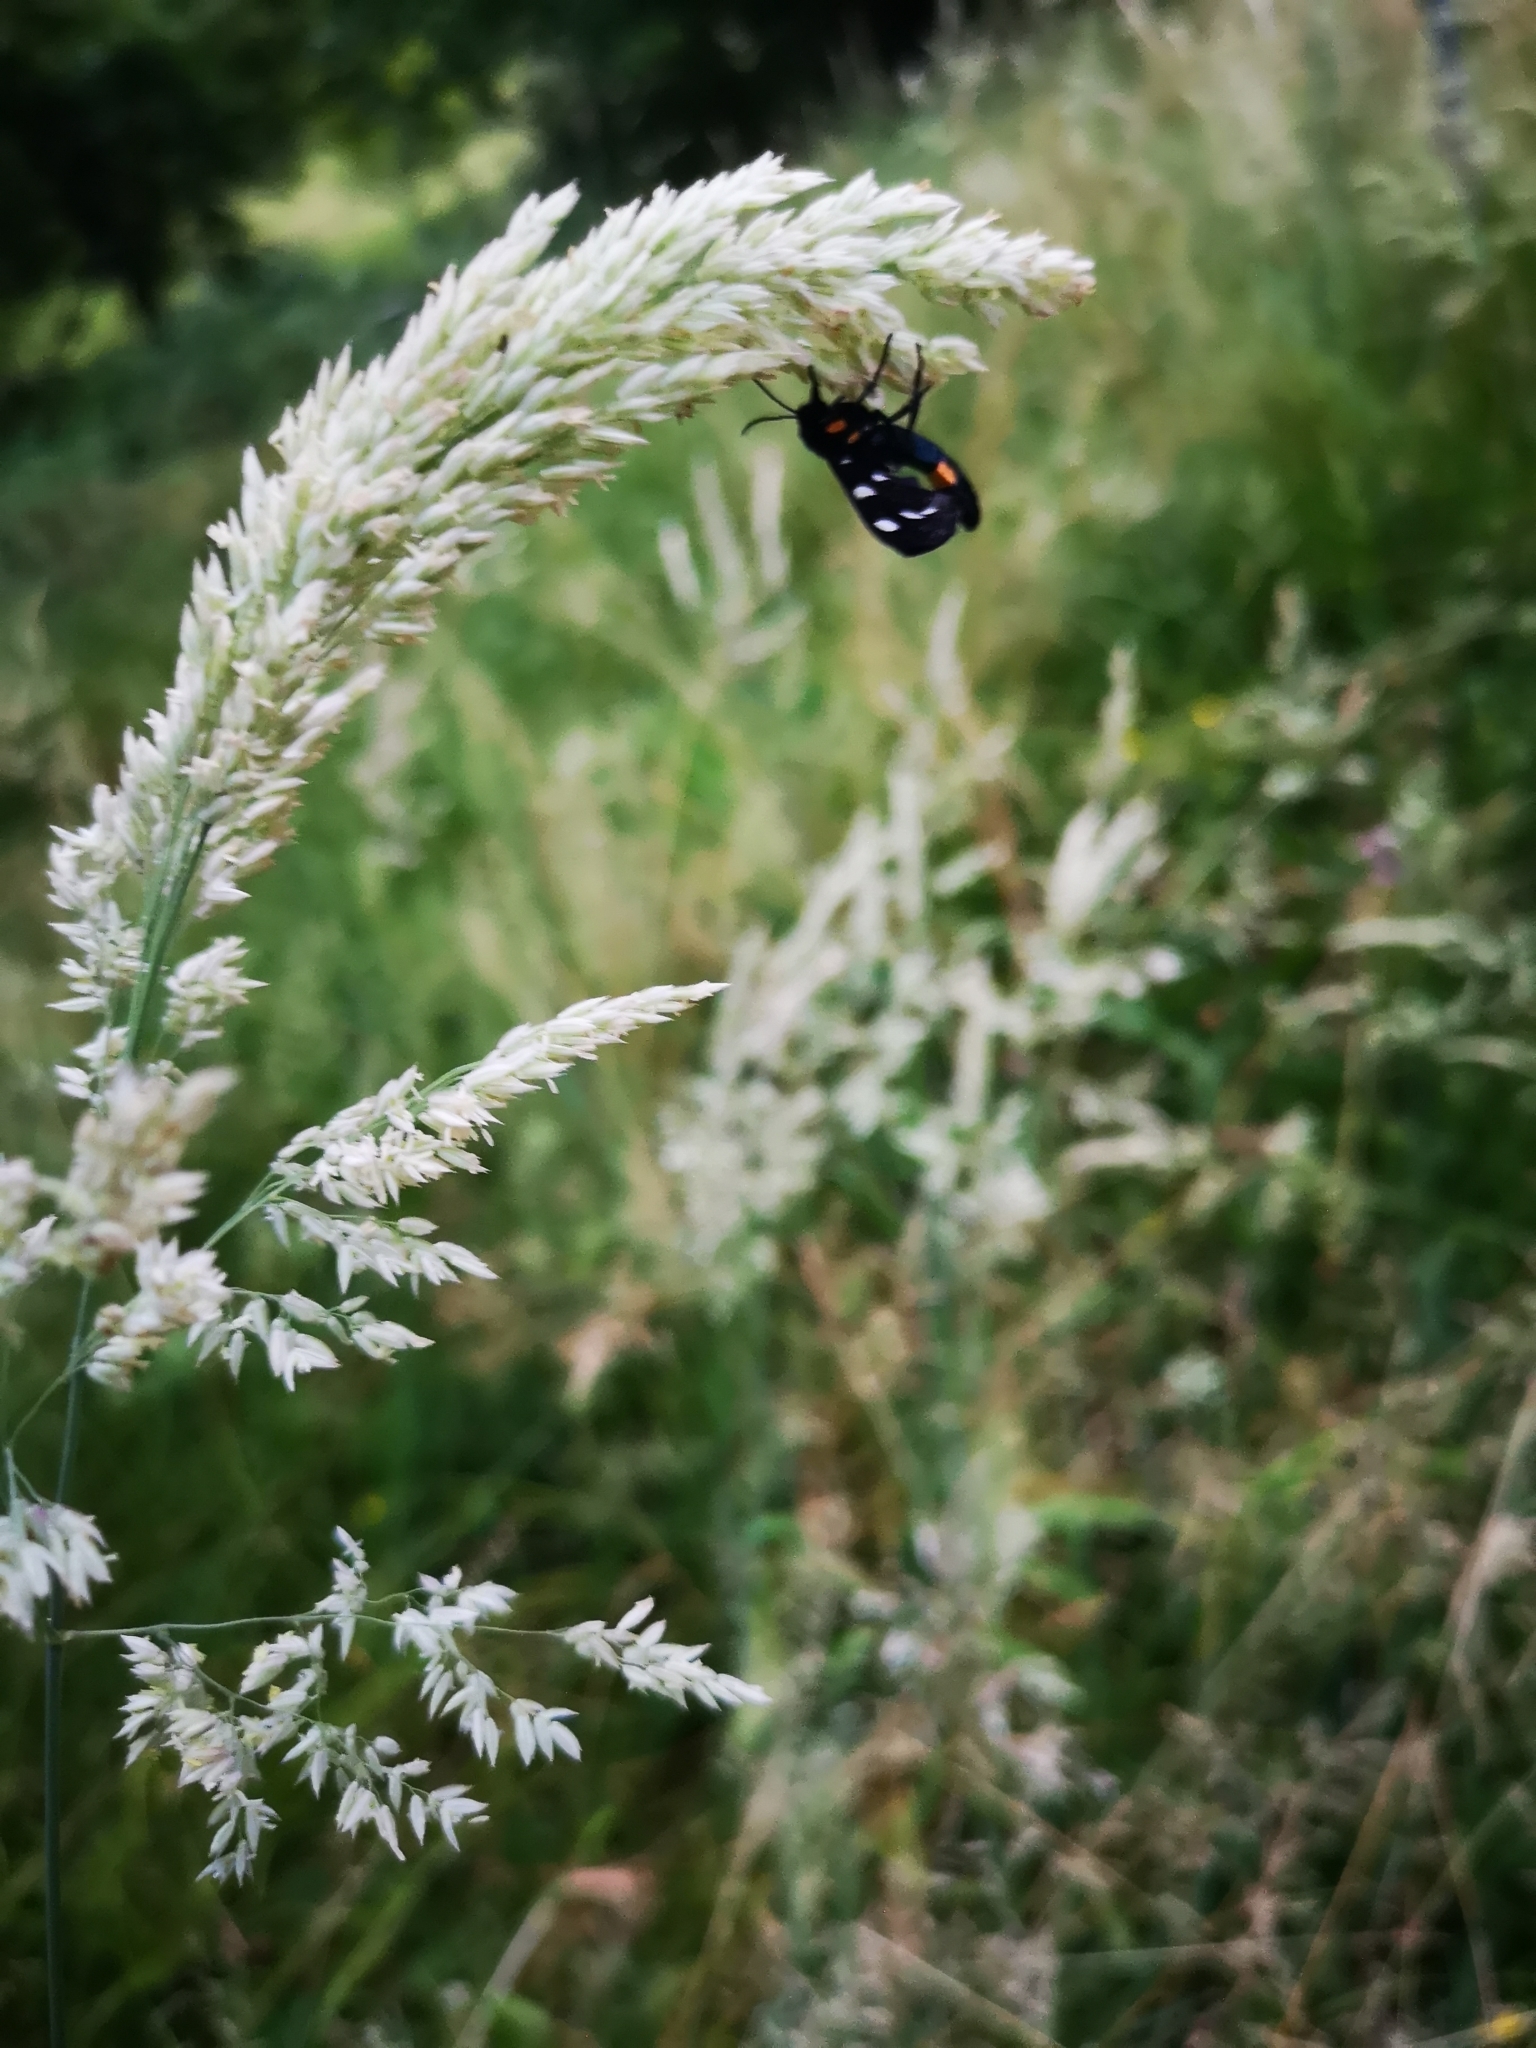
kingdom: Animalia
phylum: Arthropoda
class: Insecta
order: Lepidoptera
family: Erebidae
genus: Amata
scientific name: Amata phegea
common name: Nine-spotted
